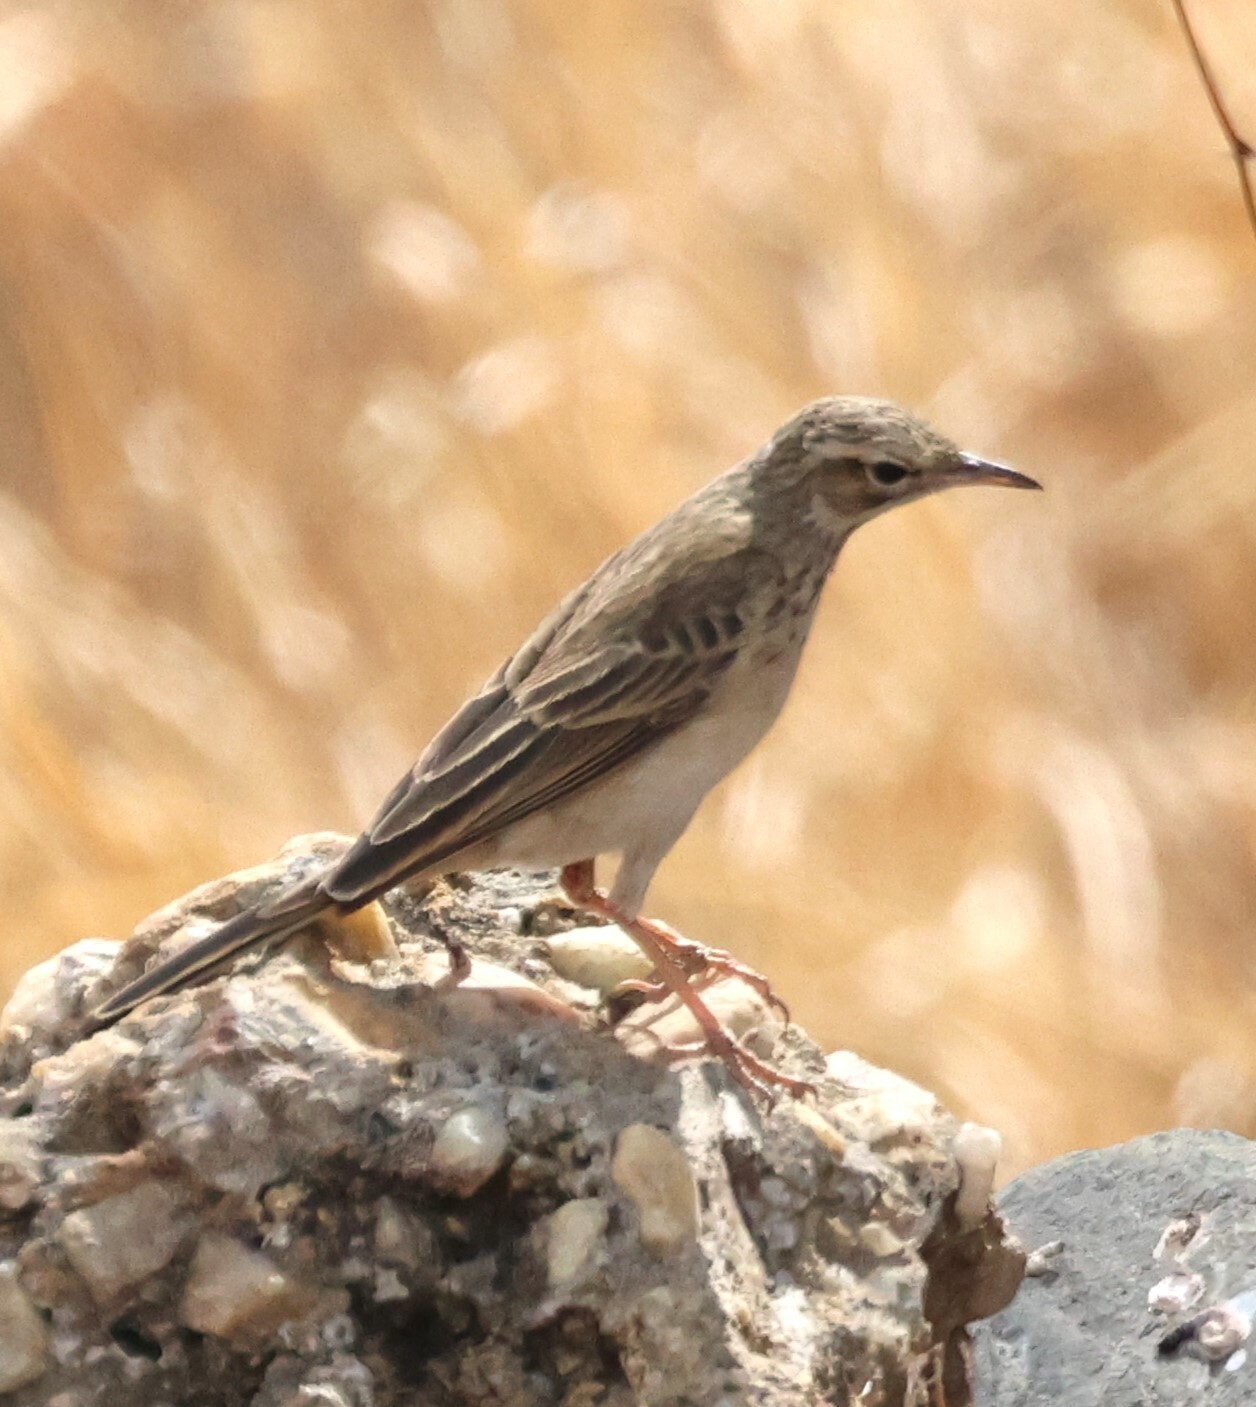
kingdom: Animalia
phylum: Chordata
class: Aves
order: Passeriformes
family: Motacillidae
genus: Anthus
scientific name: Anthus cinnamomeus
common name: African pipit
